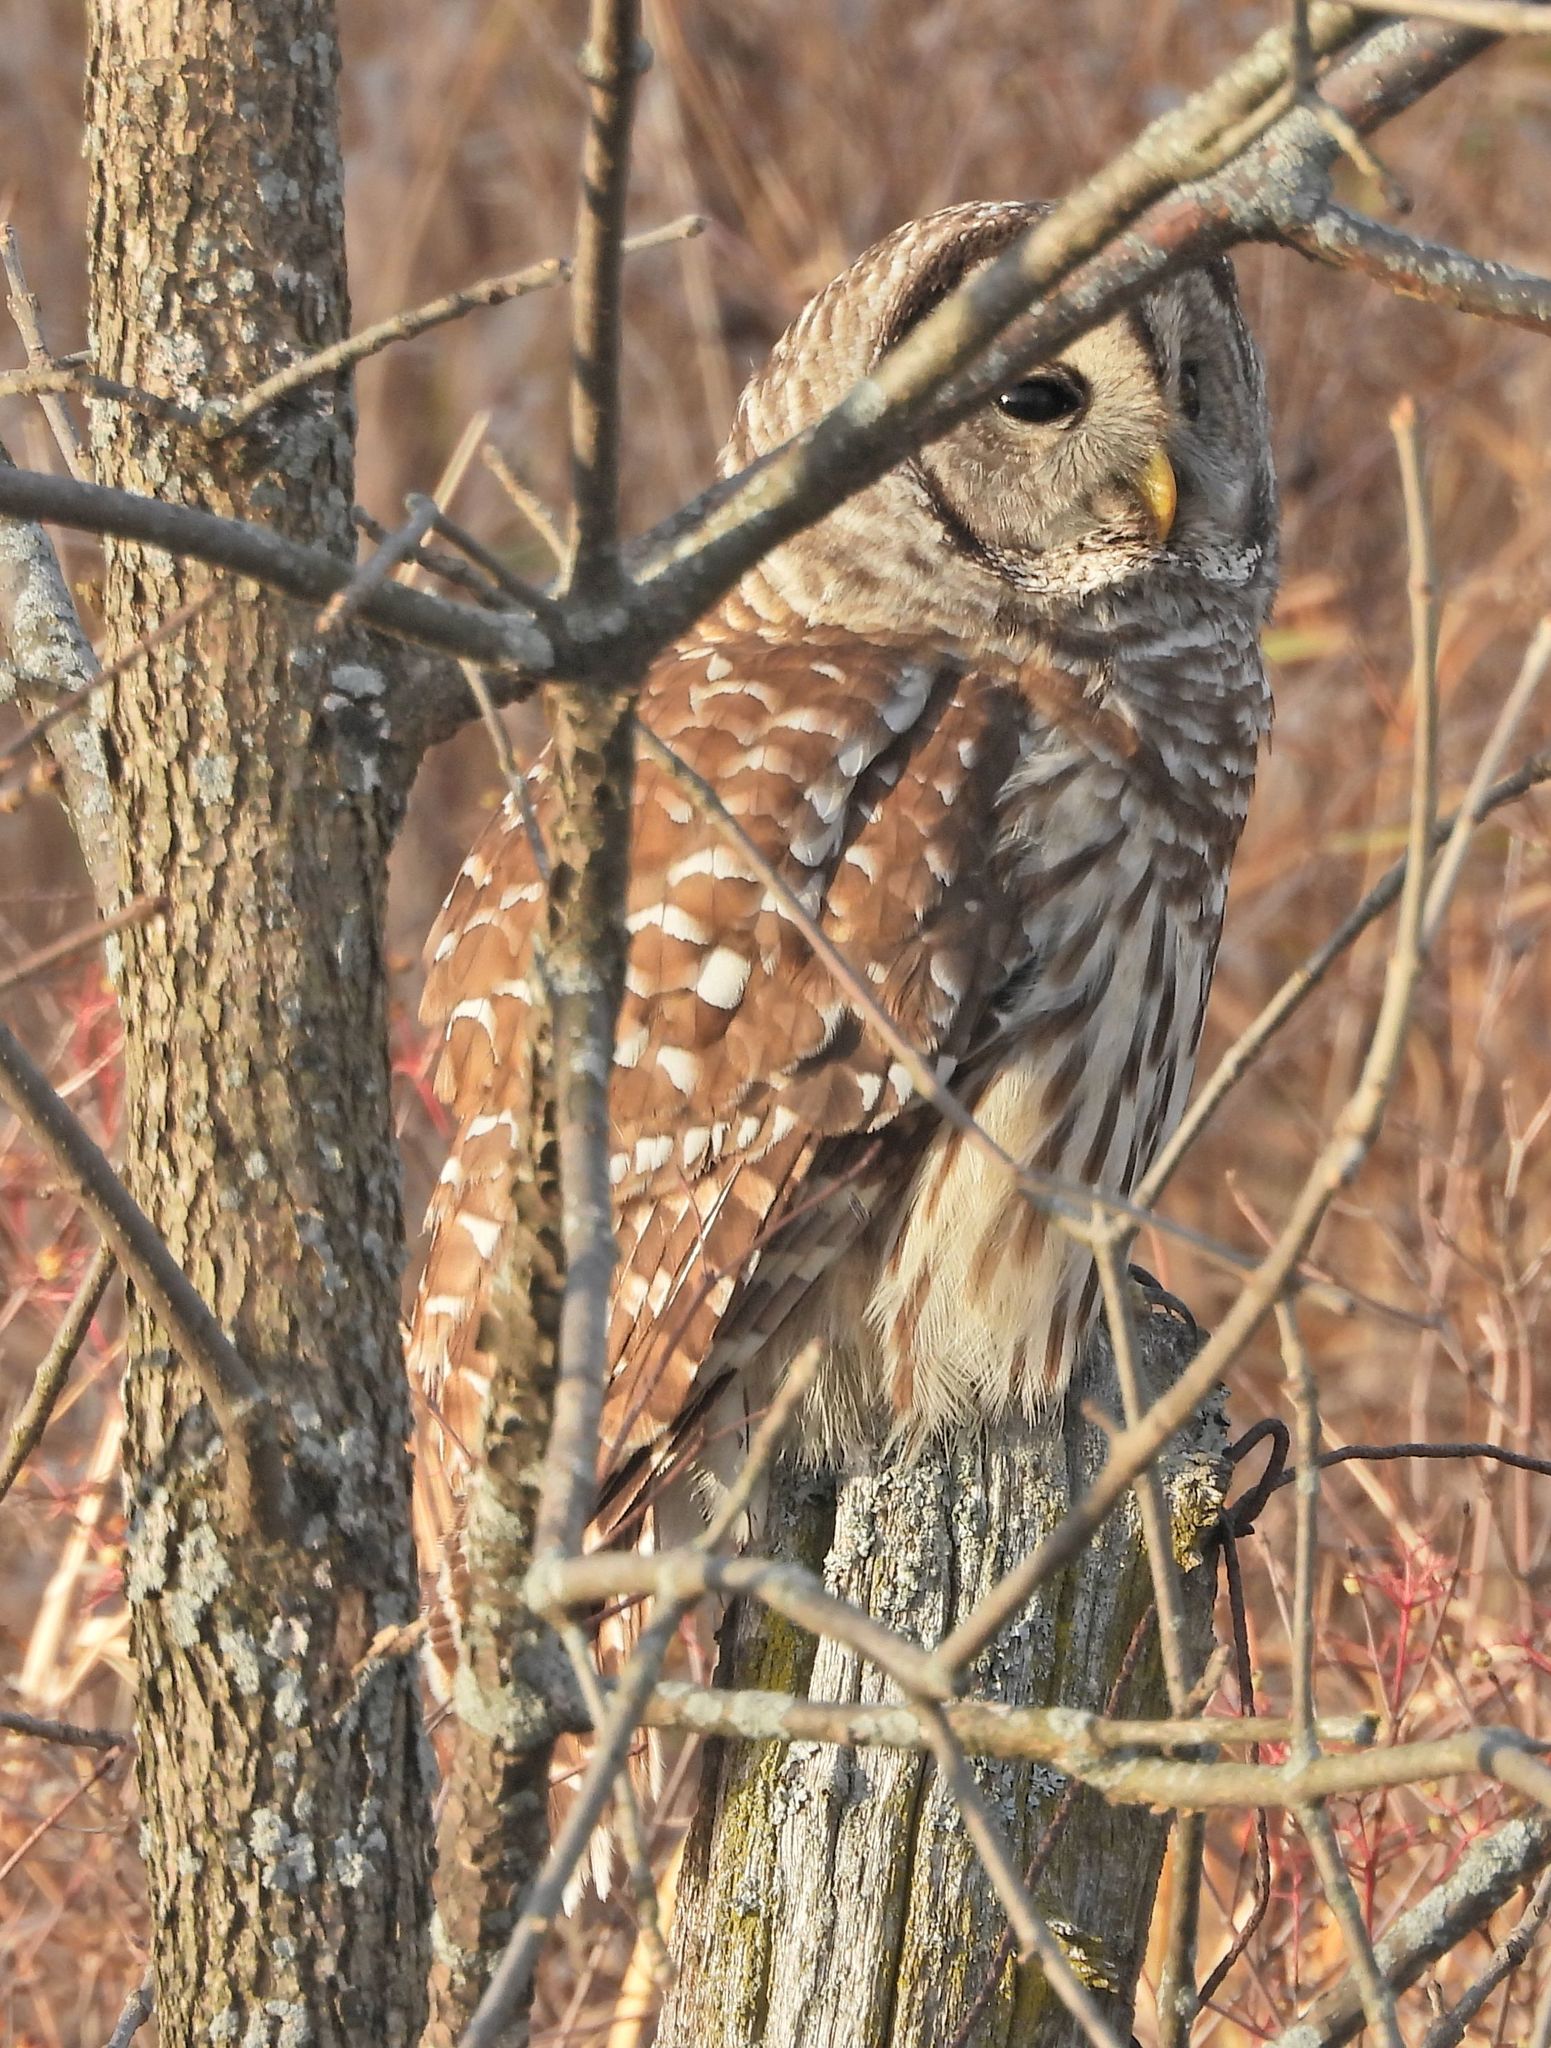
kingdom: Animalia
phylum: Chordata
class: Aves
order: Strigiformes
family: Strigidae
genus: Strix
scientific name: Strix varia
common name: Barred owl
